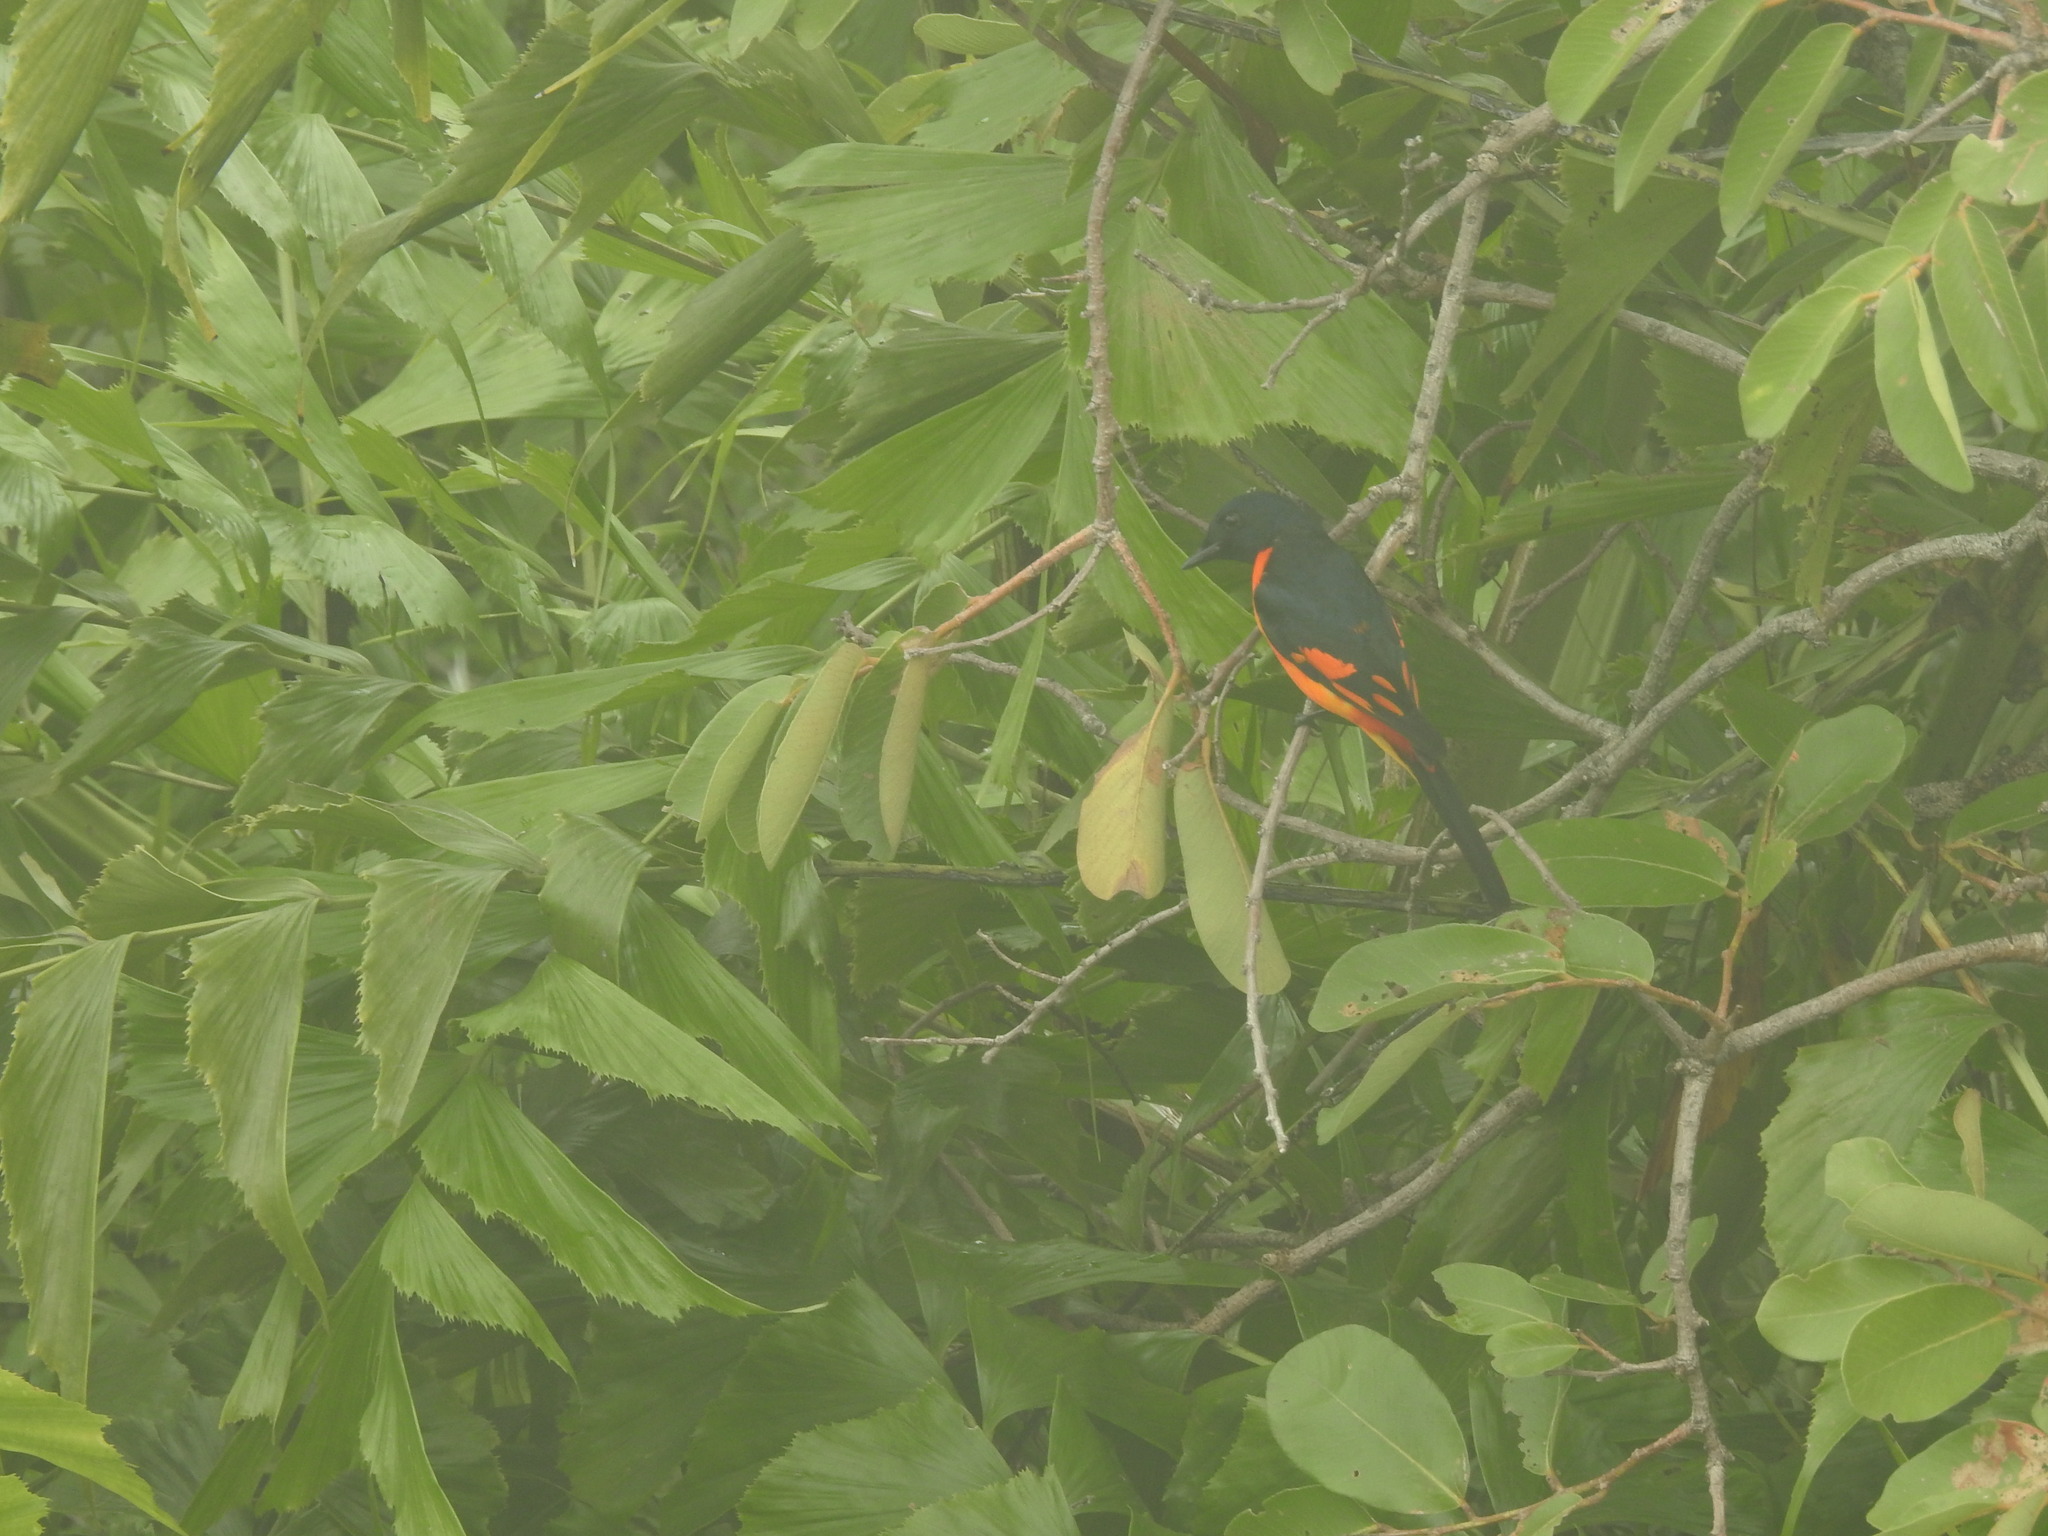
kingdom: Animalia
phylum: Chordata
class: Aves
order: Passeriformes
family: Campephagidae
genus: Pericrocotus
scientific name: Pericrocotus flammeus
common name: Orange minivet
